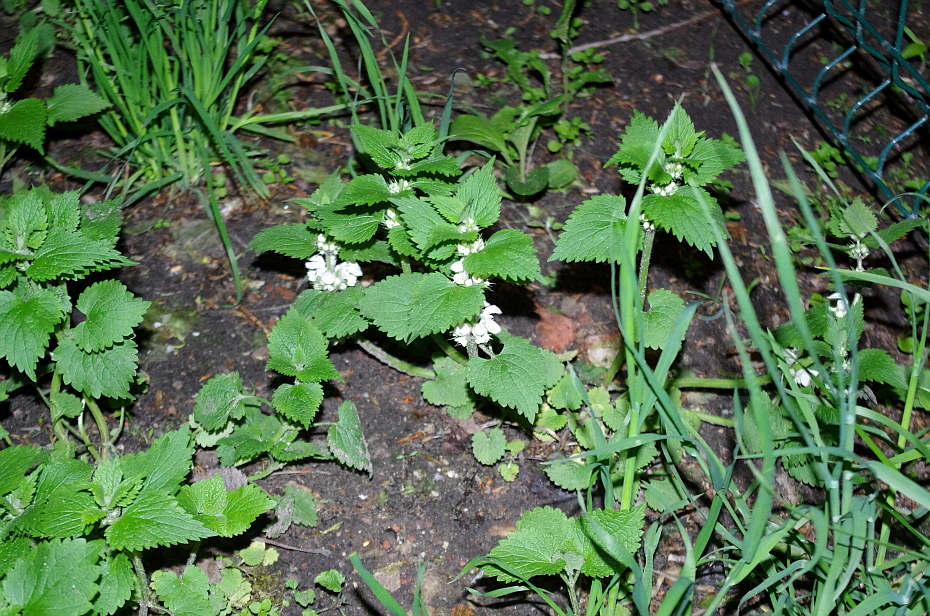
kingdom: Plantae
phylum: Tracheophyta
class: Magnoliopsida
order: Lamiales
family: Lamiaceae
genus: Lamium
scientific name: Lamium album
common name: White dead-nettle
